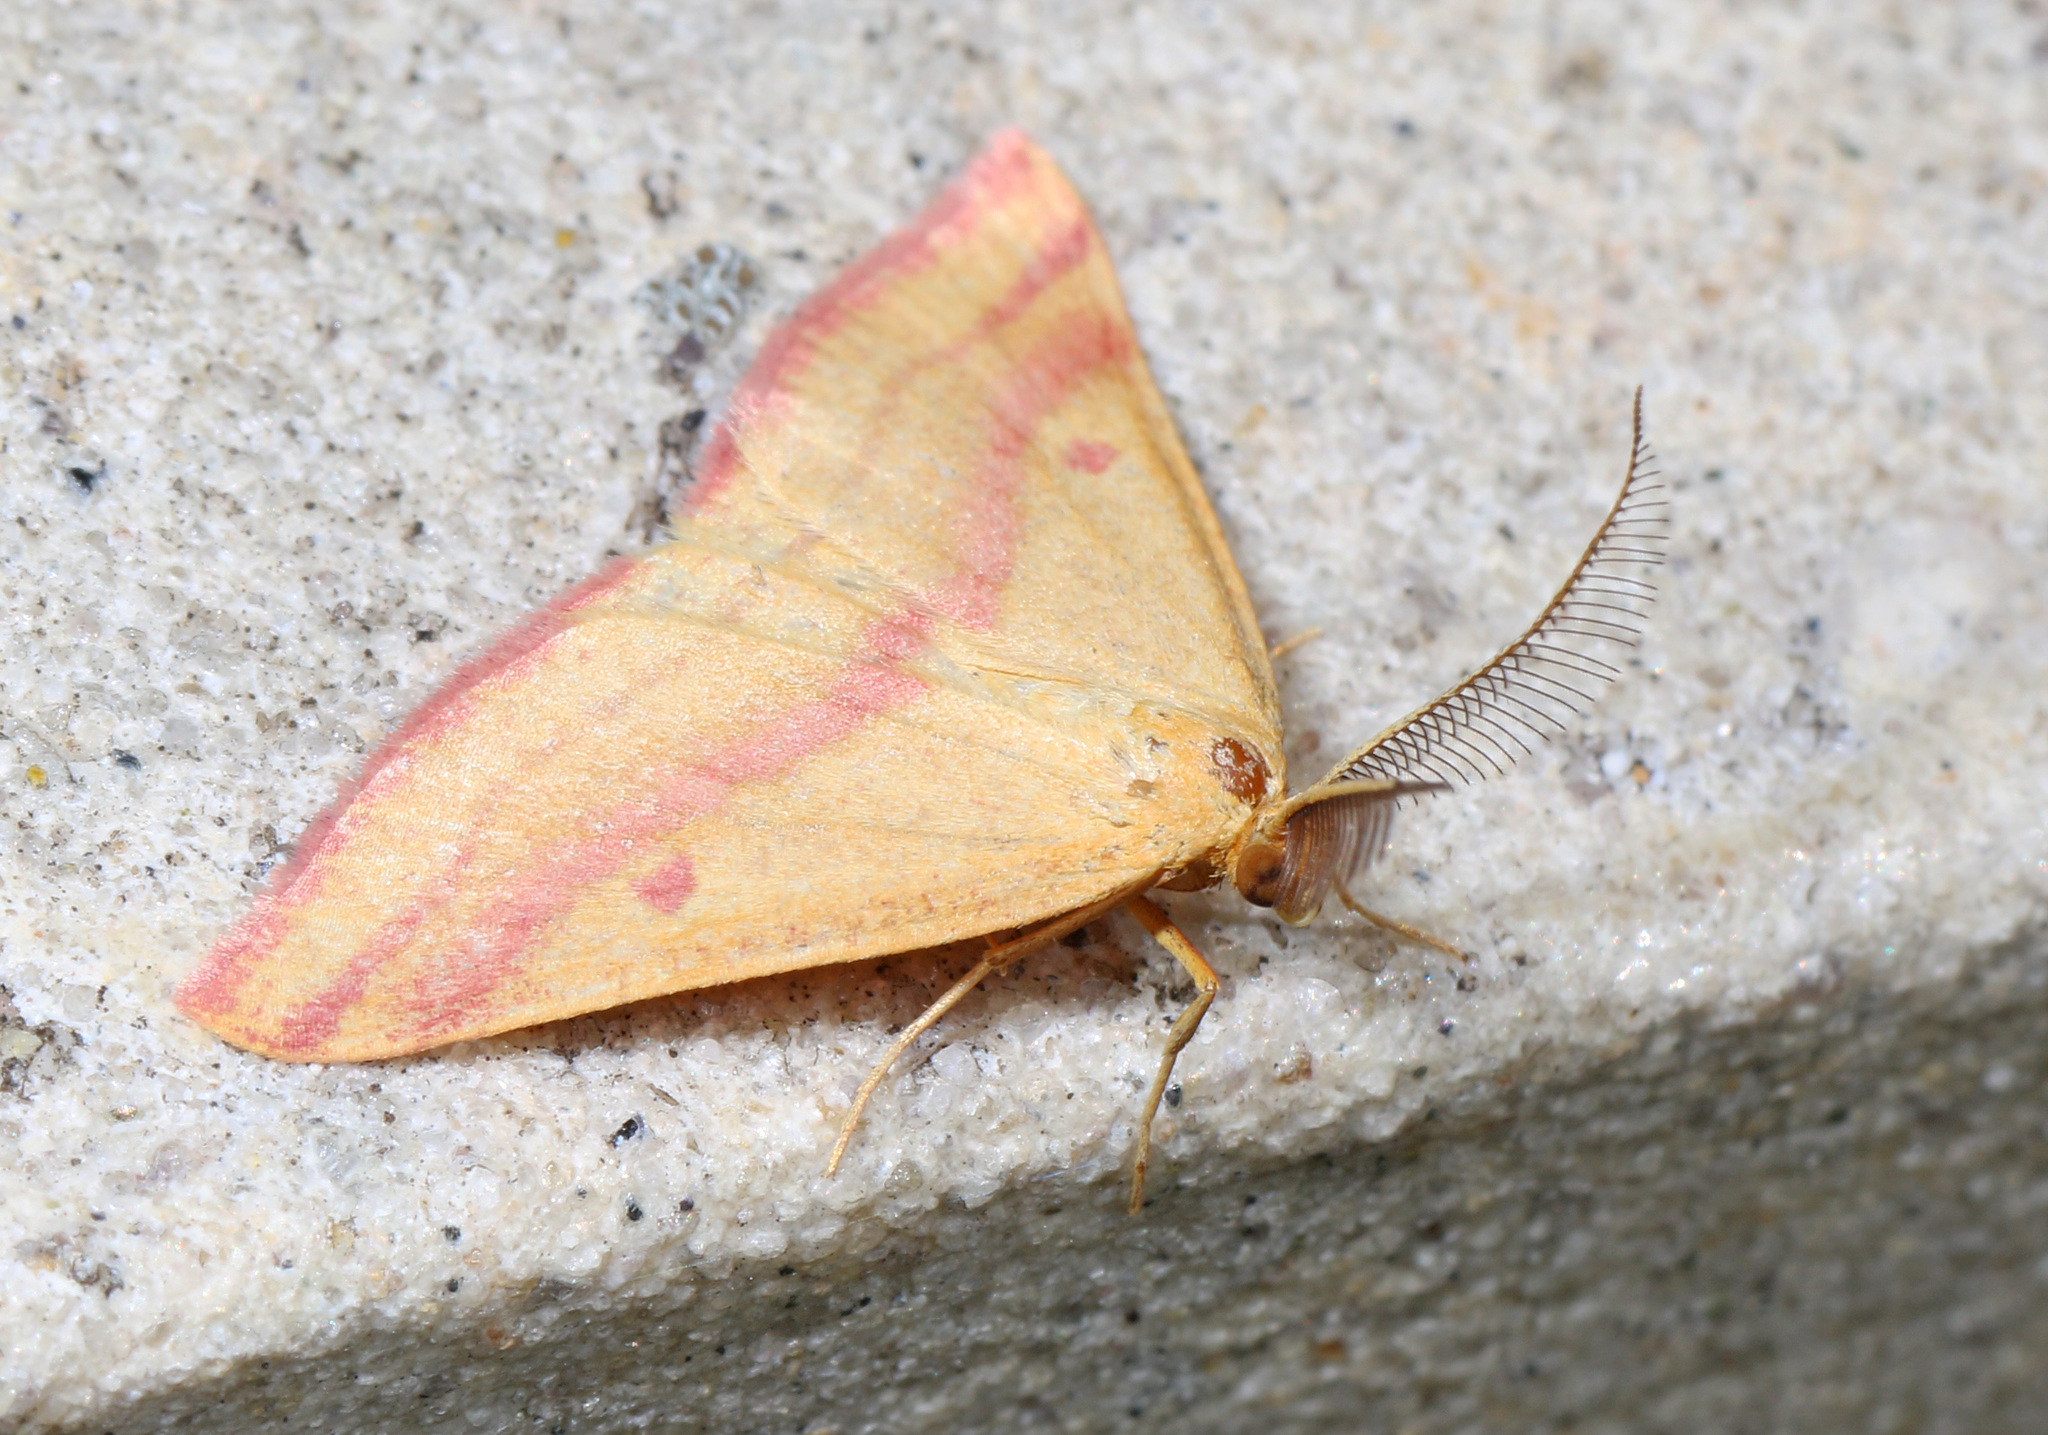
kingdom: Animalia
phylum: Arthropoda
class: Insecta
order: Lepidoptera
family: Geometridae
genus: Haematopis
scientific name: Haematopis grataria
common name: Chickweed geometer
